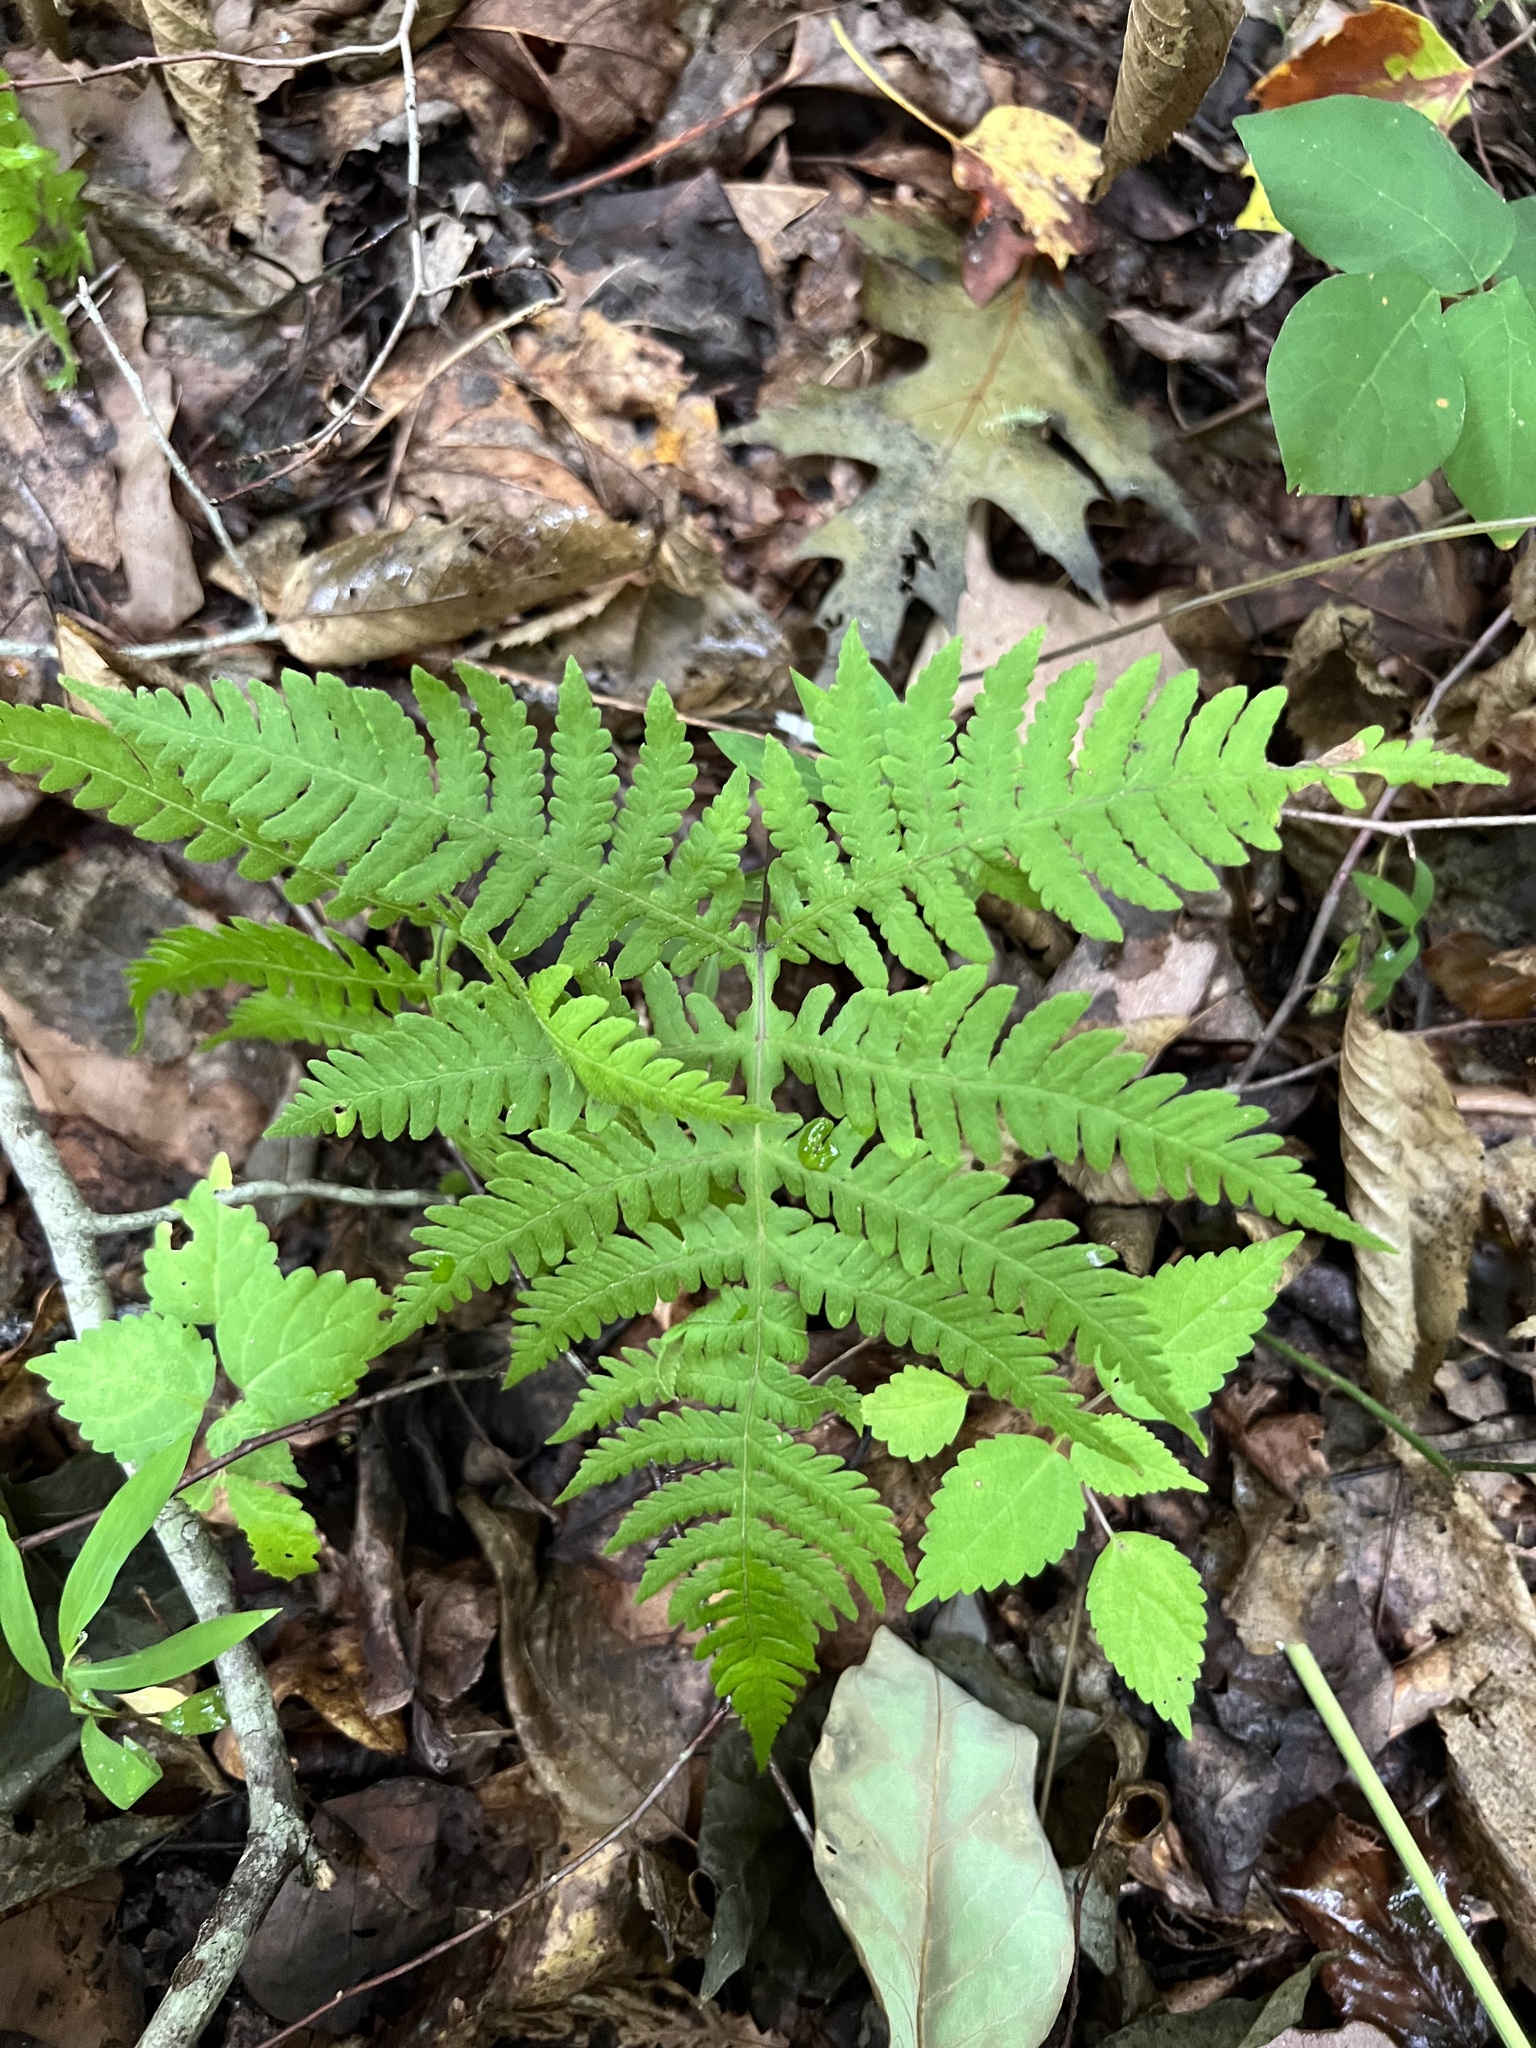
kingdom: Plantae
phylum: Tracheophyta
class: Polypodiopsida
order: Polypodiales
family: Thelypteridaceae
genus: Phegopteris
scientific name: Phegopteris hexagonoptera
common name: Broad beech fern
